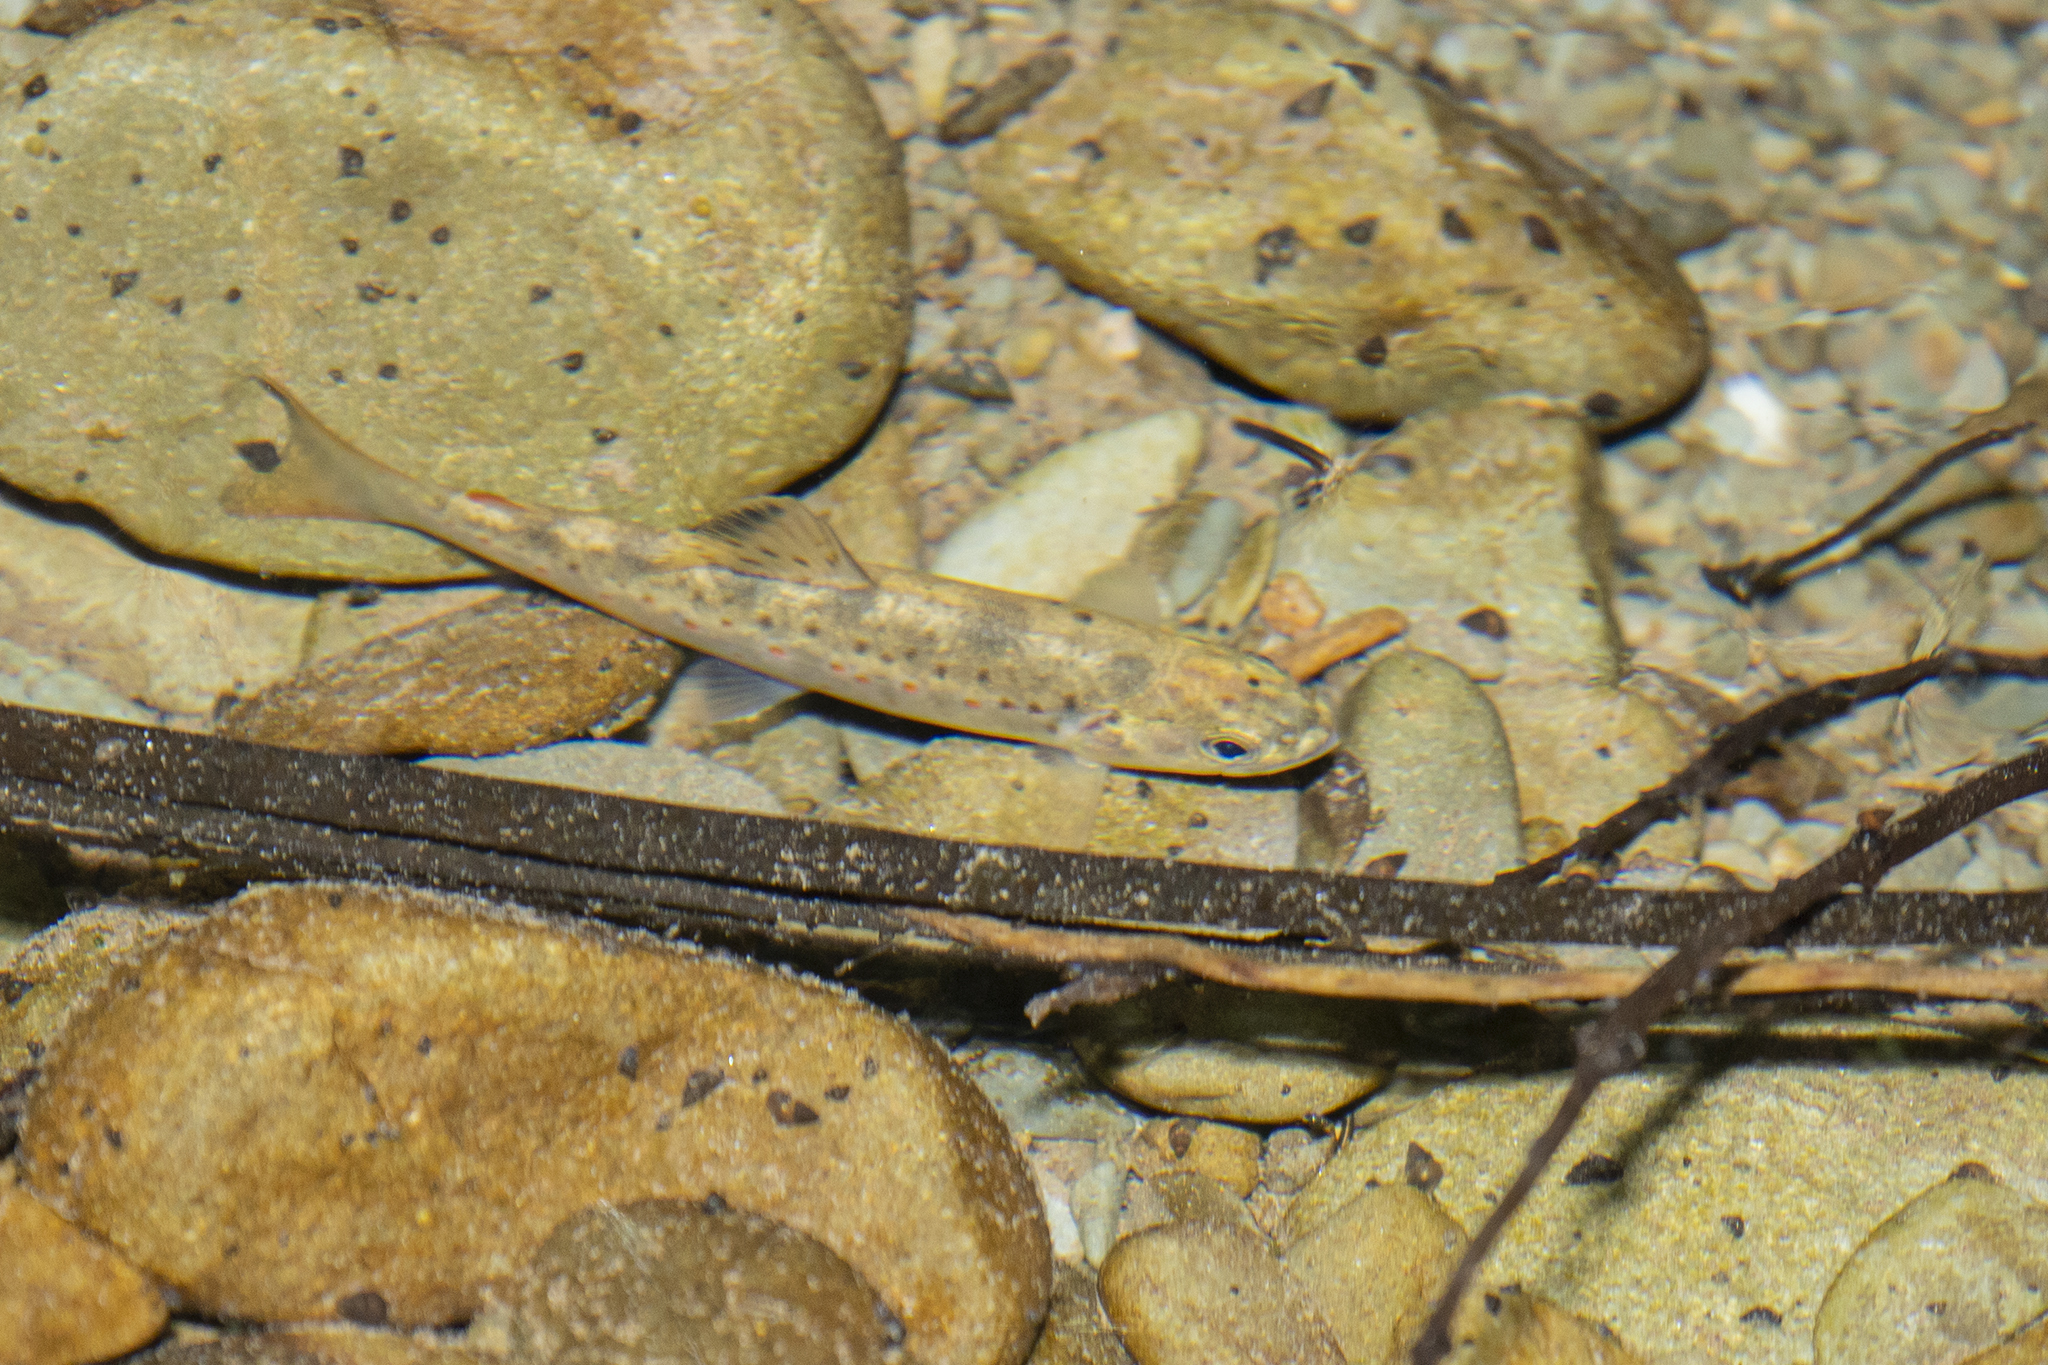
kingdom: Animalia
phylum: Chordata
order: Salmoniformes
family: Salmonidae
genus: Salmo
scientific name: Salmo trutta
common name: Brown trout
